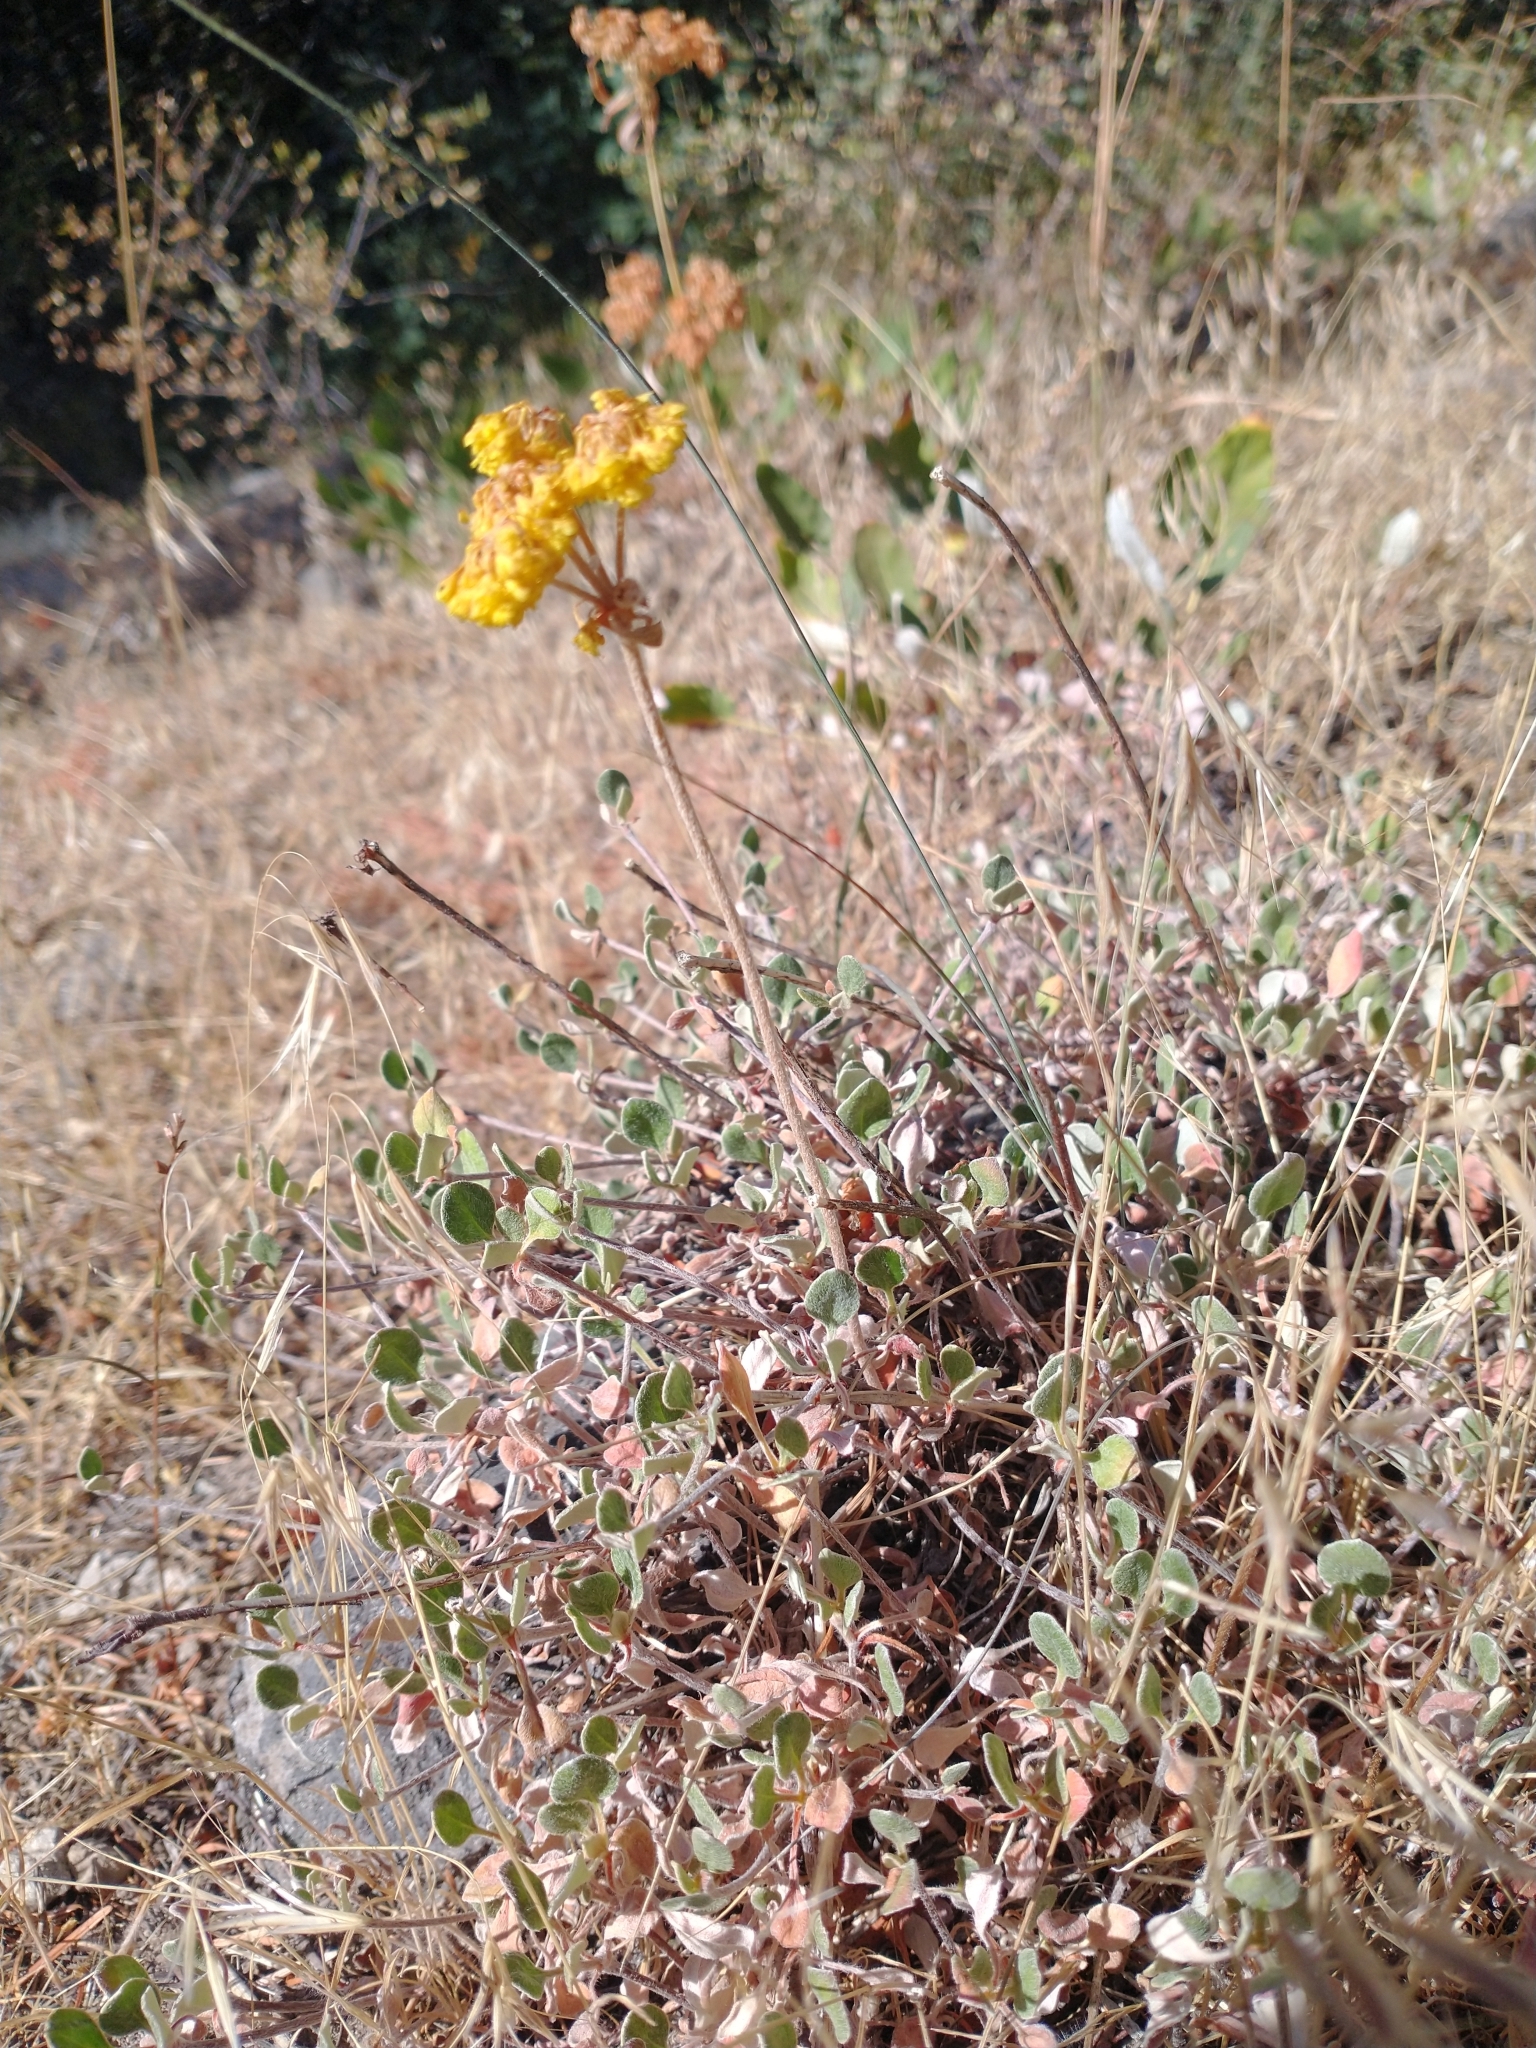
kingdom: Plantae
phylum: Tracheophyta
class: Magnoliopsida
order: Caryophyllales
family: Polygonaceae
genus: Eriogonum
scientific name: Eriogonum umbellatum
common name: Sulfur-buckwheat
